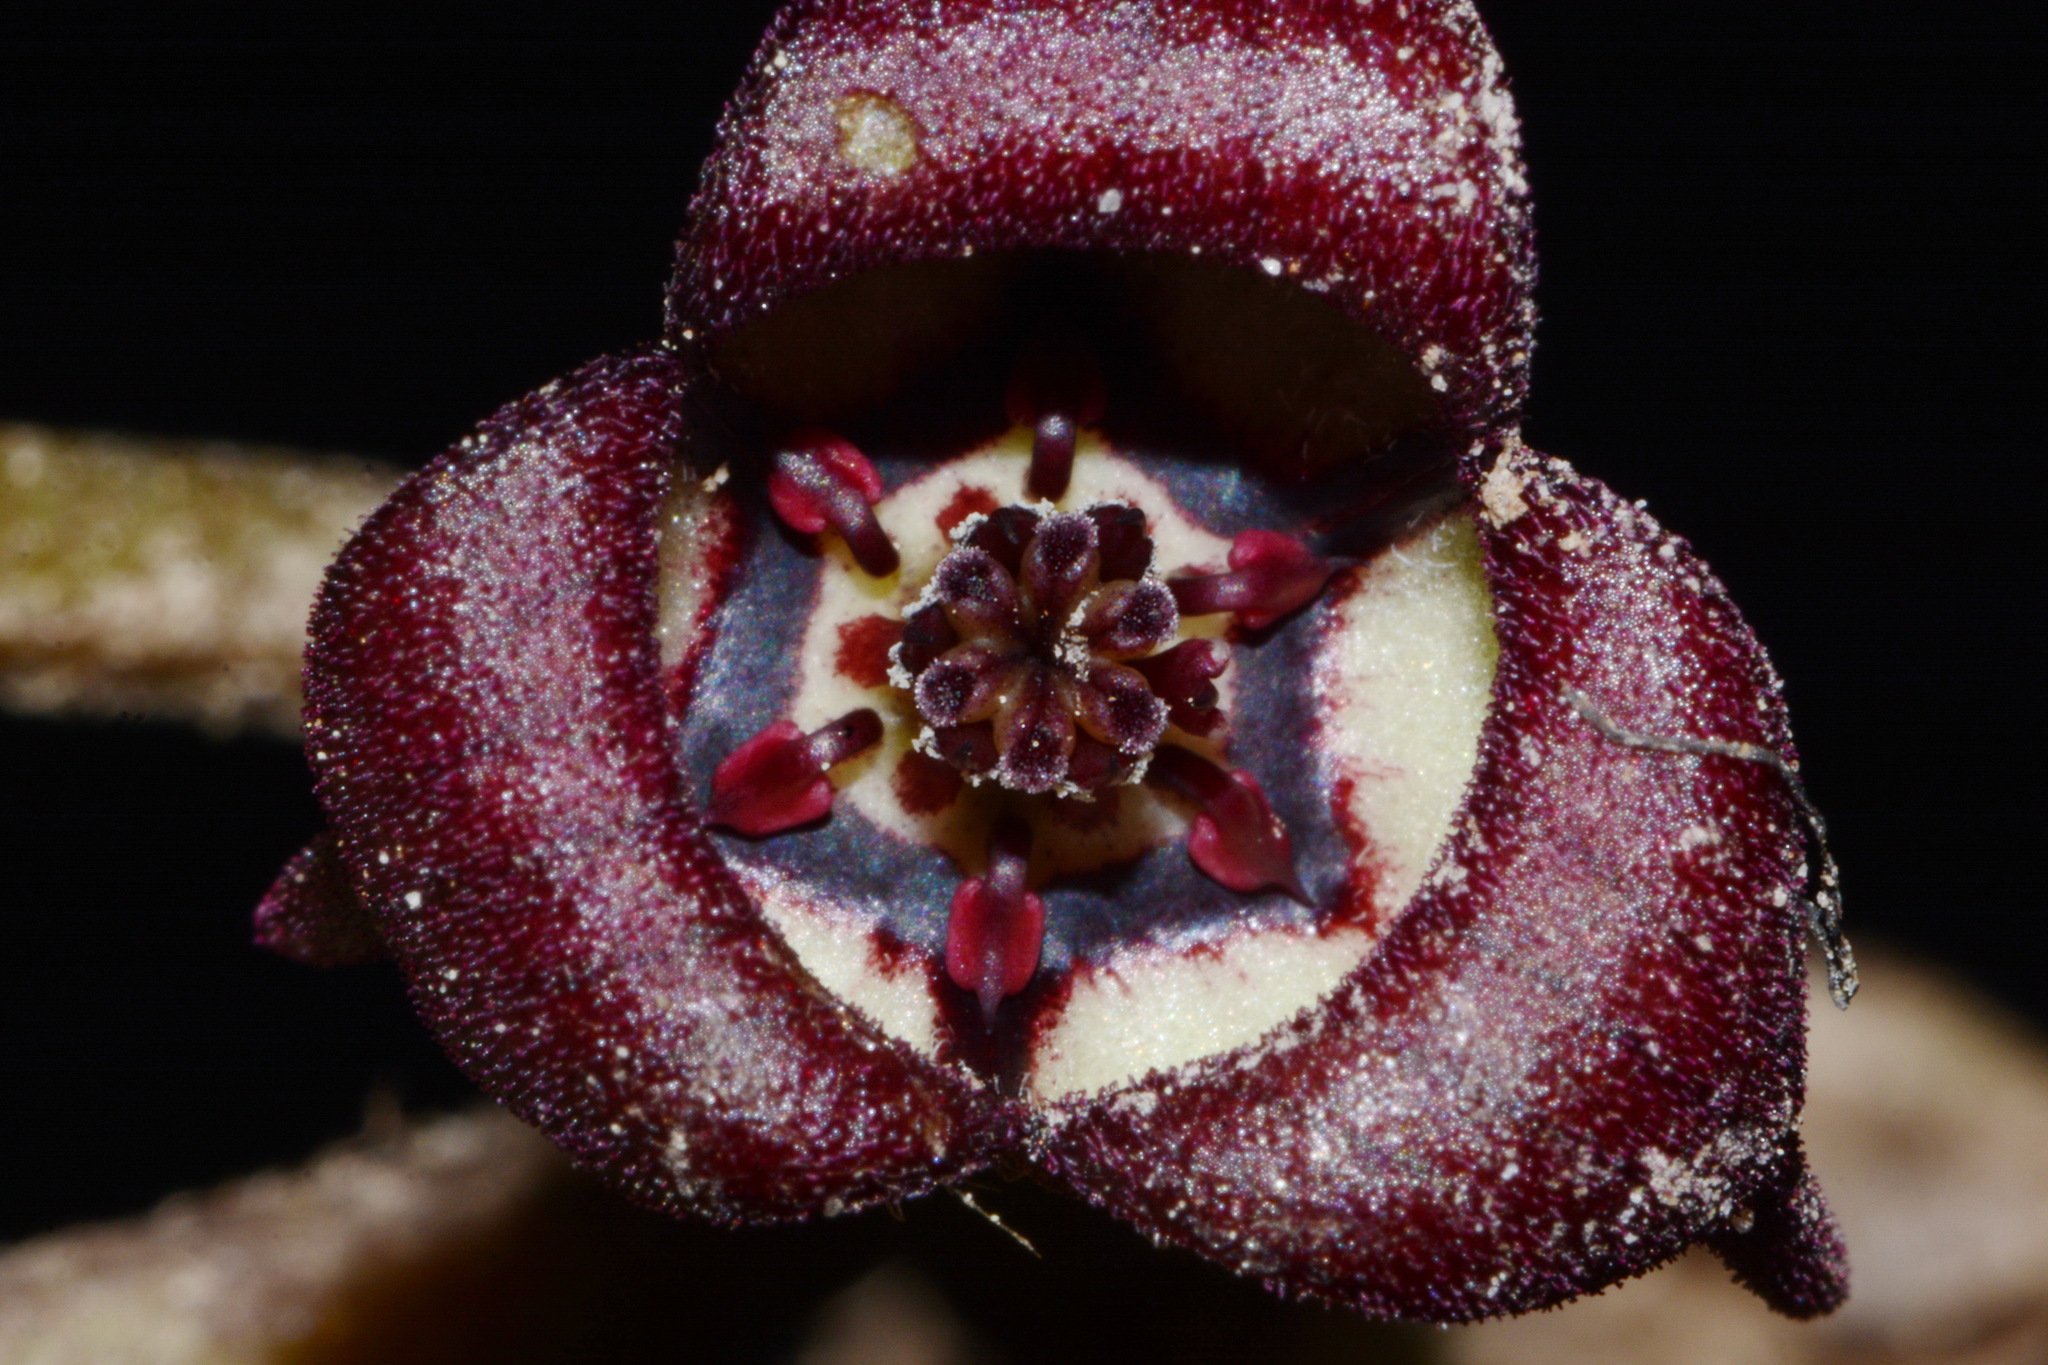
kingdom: Plantae
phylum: Tracheophyta
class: Magnoliopsida
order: Piperales
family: Aristolochiaceae
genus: Asarum
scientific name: Asarum canadense
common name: Wild ginger
